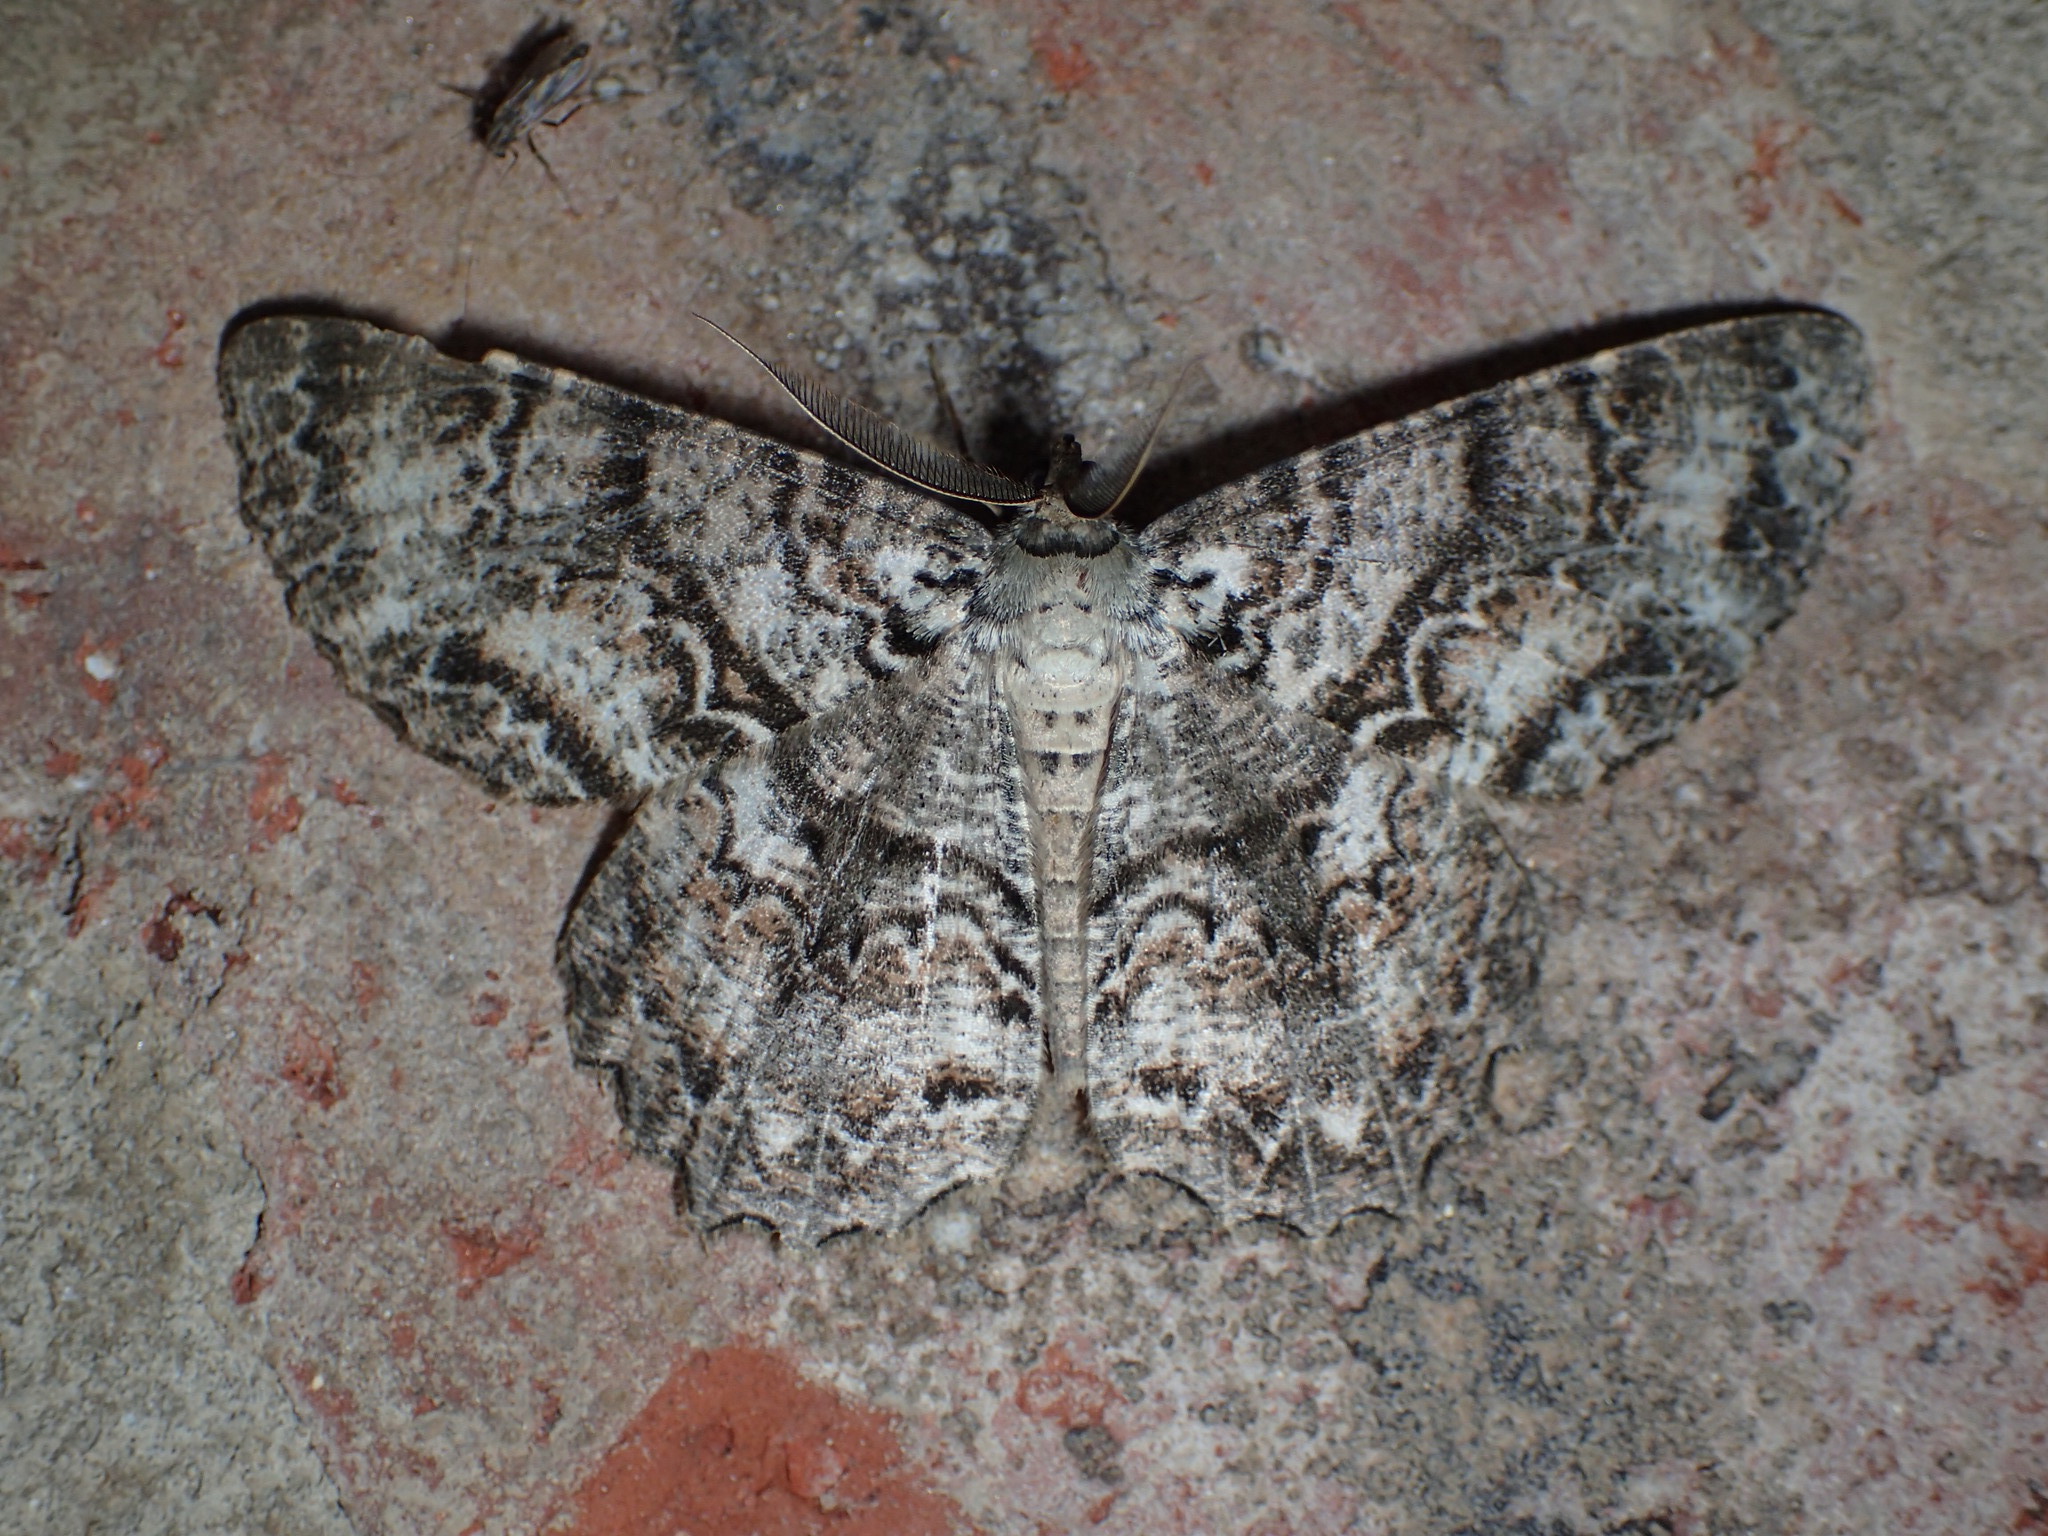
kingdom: Animalia
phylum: Arthropoda
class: Insecta
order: Lepidoptera
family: Geometridae
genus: Epimecis
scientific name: Epimecis hortaria
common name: Tulip-tree beauty
